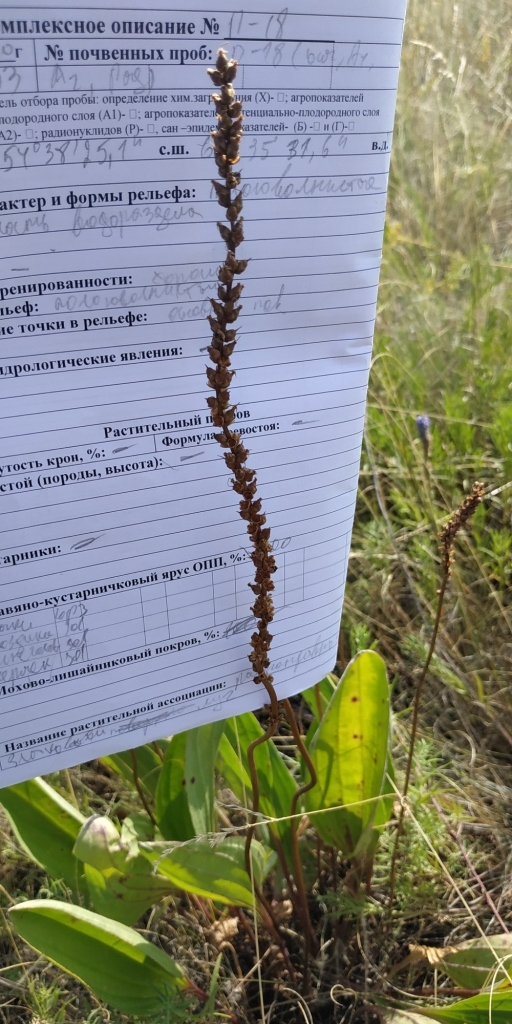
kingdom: Plantae
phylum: Tracheophyta
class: Magnoliopsida
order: Lamiales
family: Plantaginaceae
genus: Plantago
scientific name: Plantago cornuti
